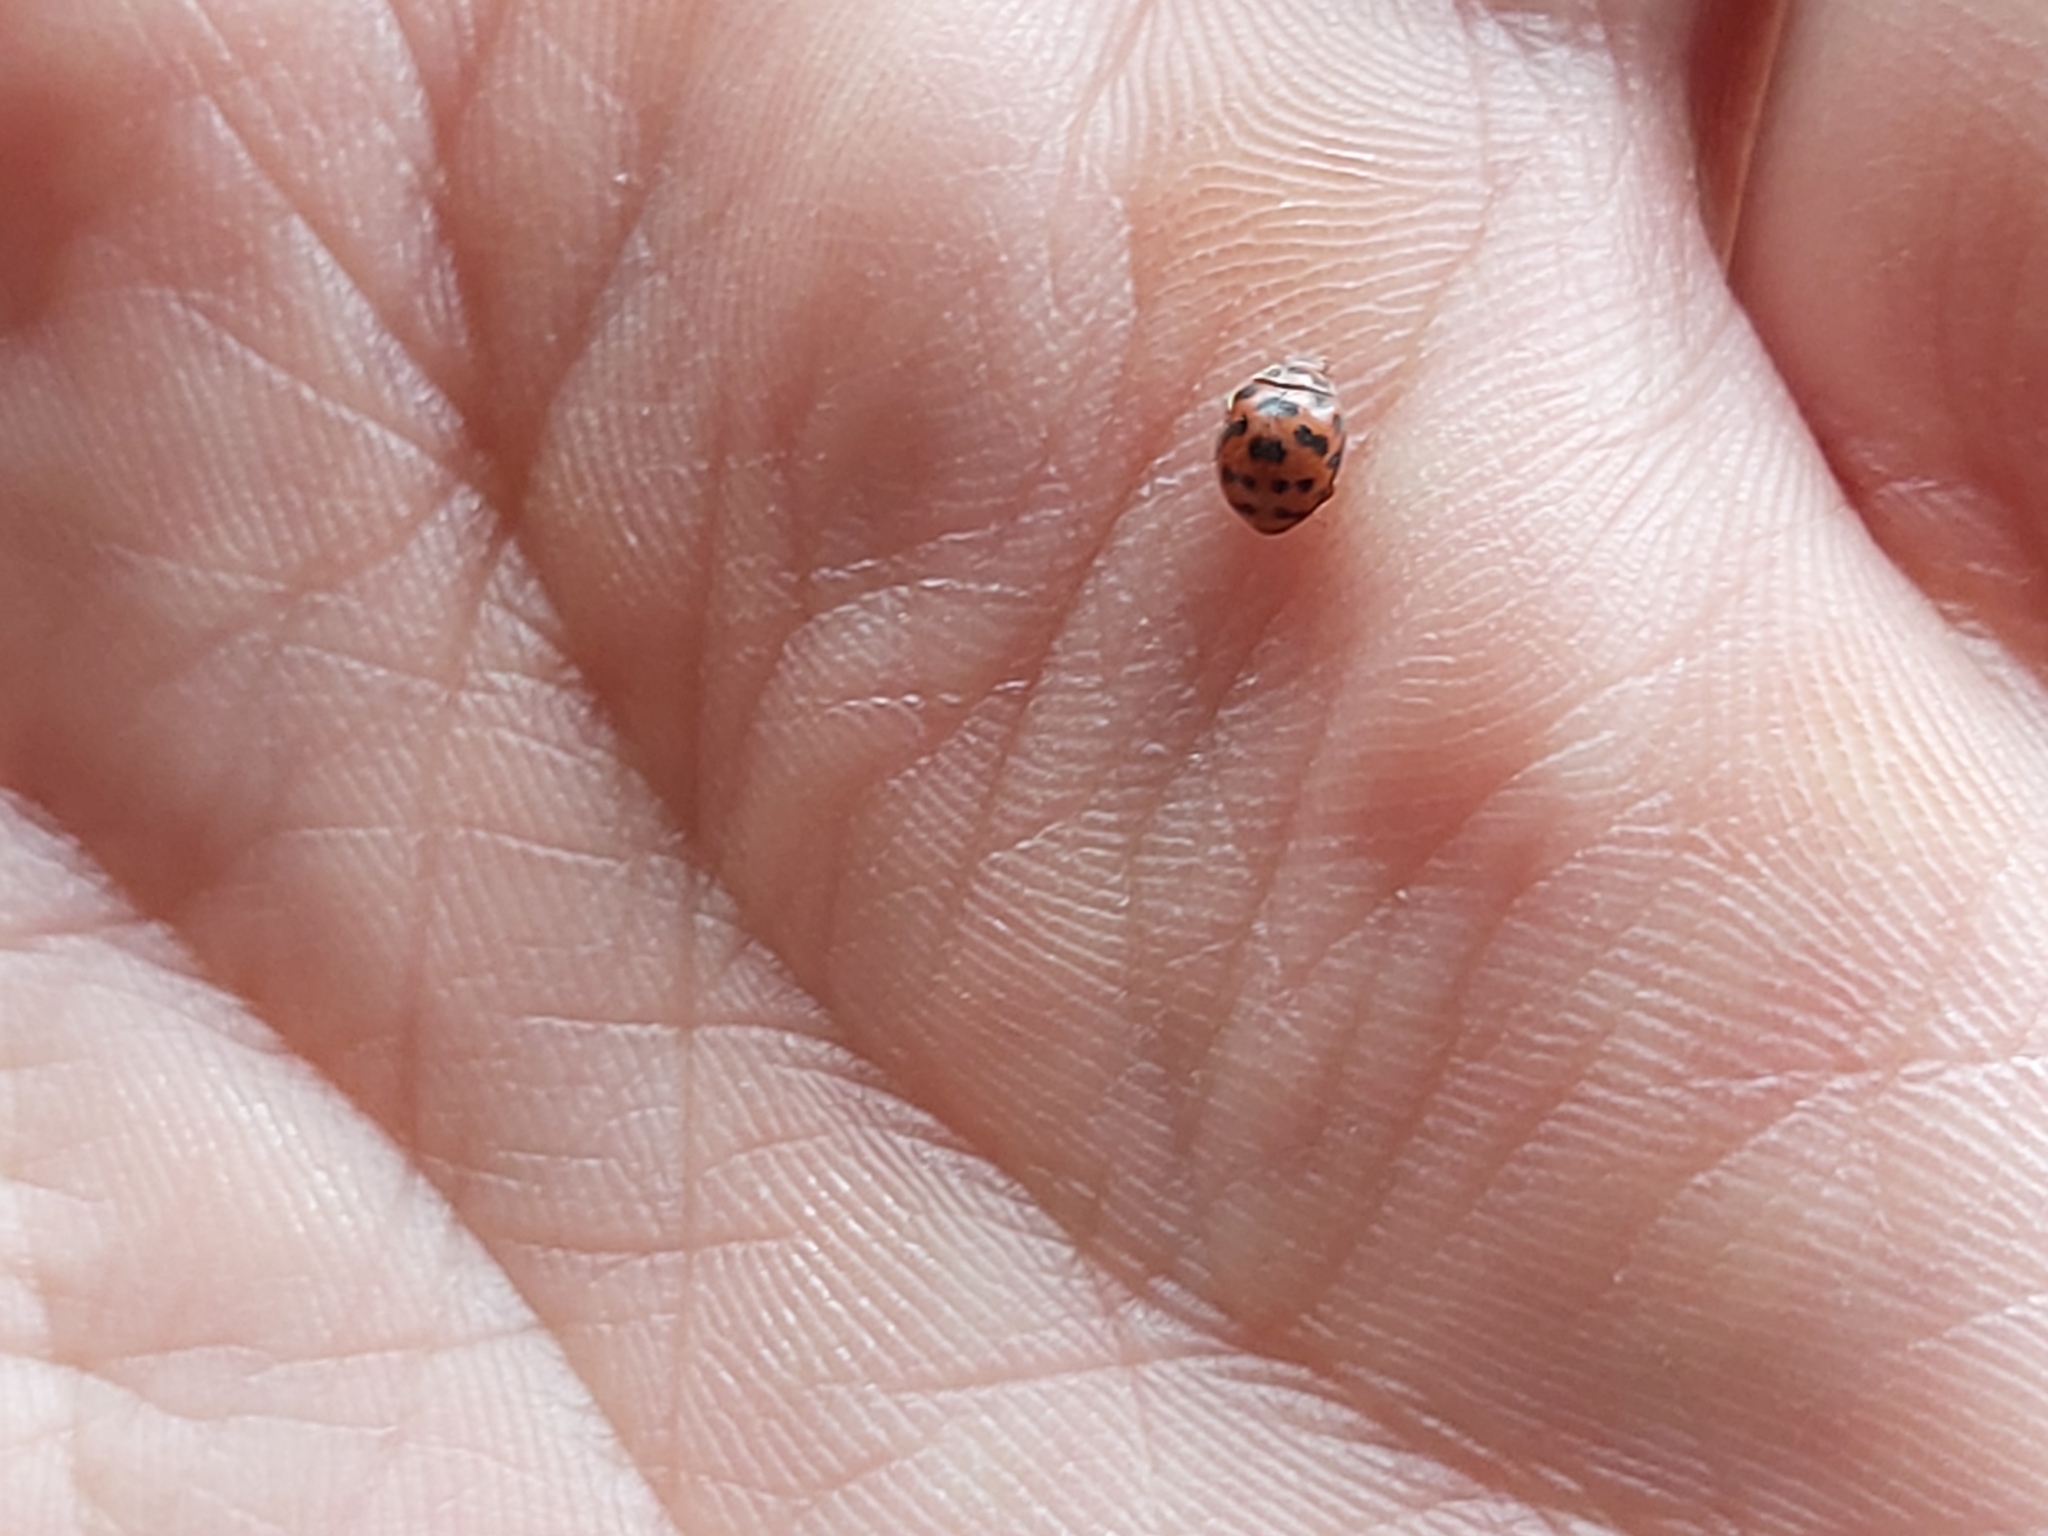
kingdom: Animalia
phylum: Arthropoda
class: Insecta
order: Coleoptera
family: Coccinellidae
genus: Subcoccinella
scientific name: Subcoccinella vigintiquatuorpunctata
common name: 24-spot ladybird
